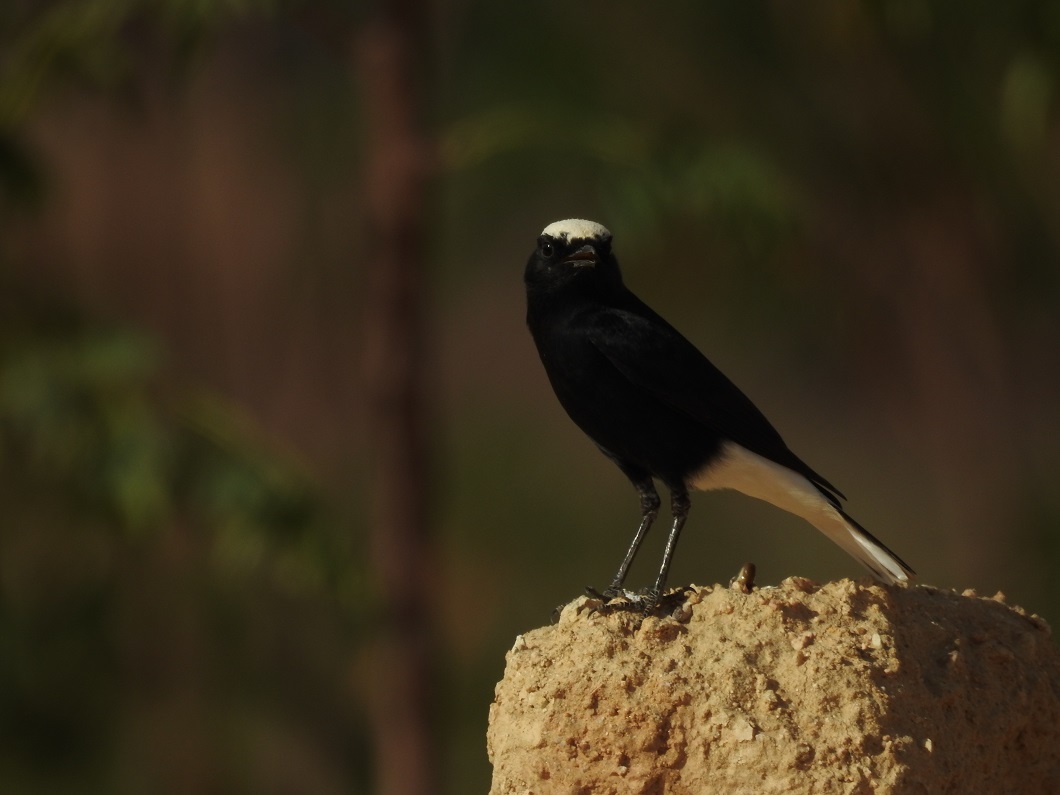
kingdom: Animalia
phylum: Chordata
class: Aves
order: Passeriformes
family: Muscicapidae
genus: Oenanthe
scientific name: Oenanthe leucopyga
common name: White-crowned wheatear
